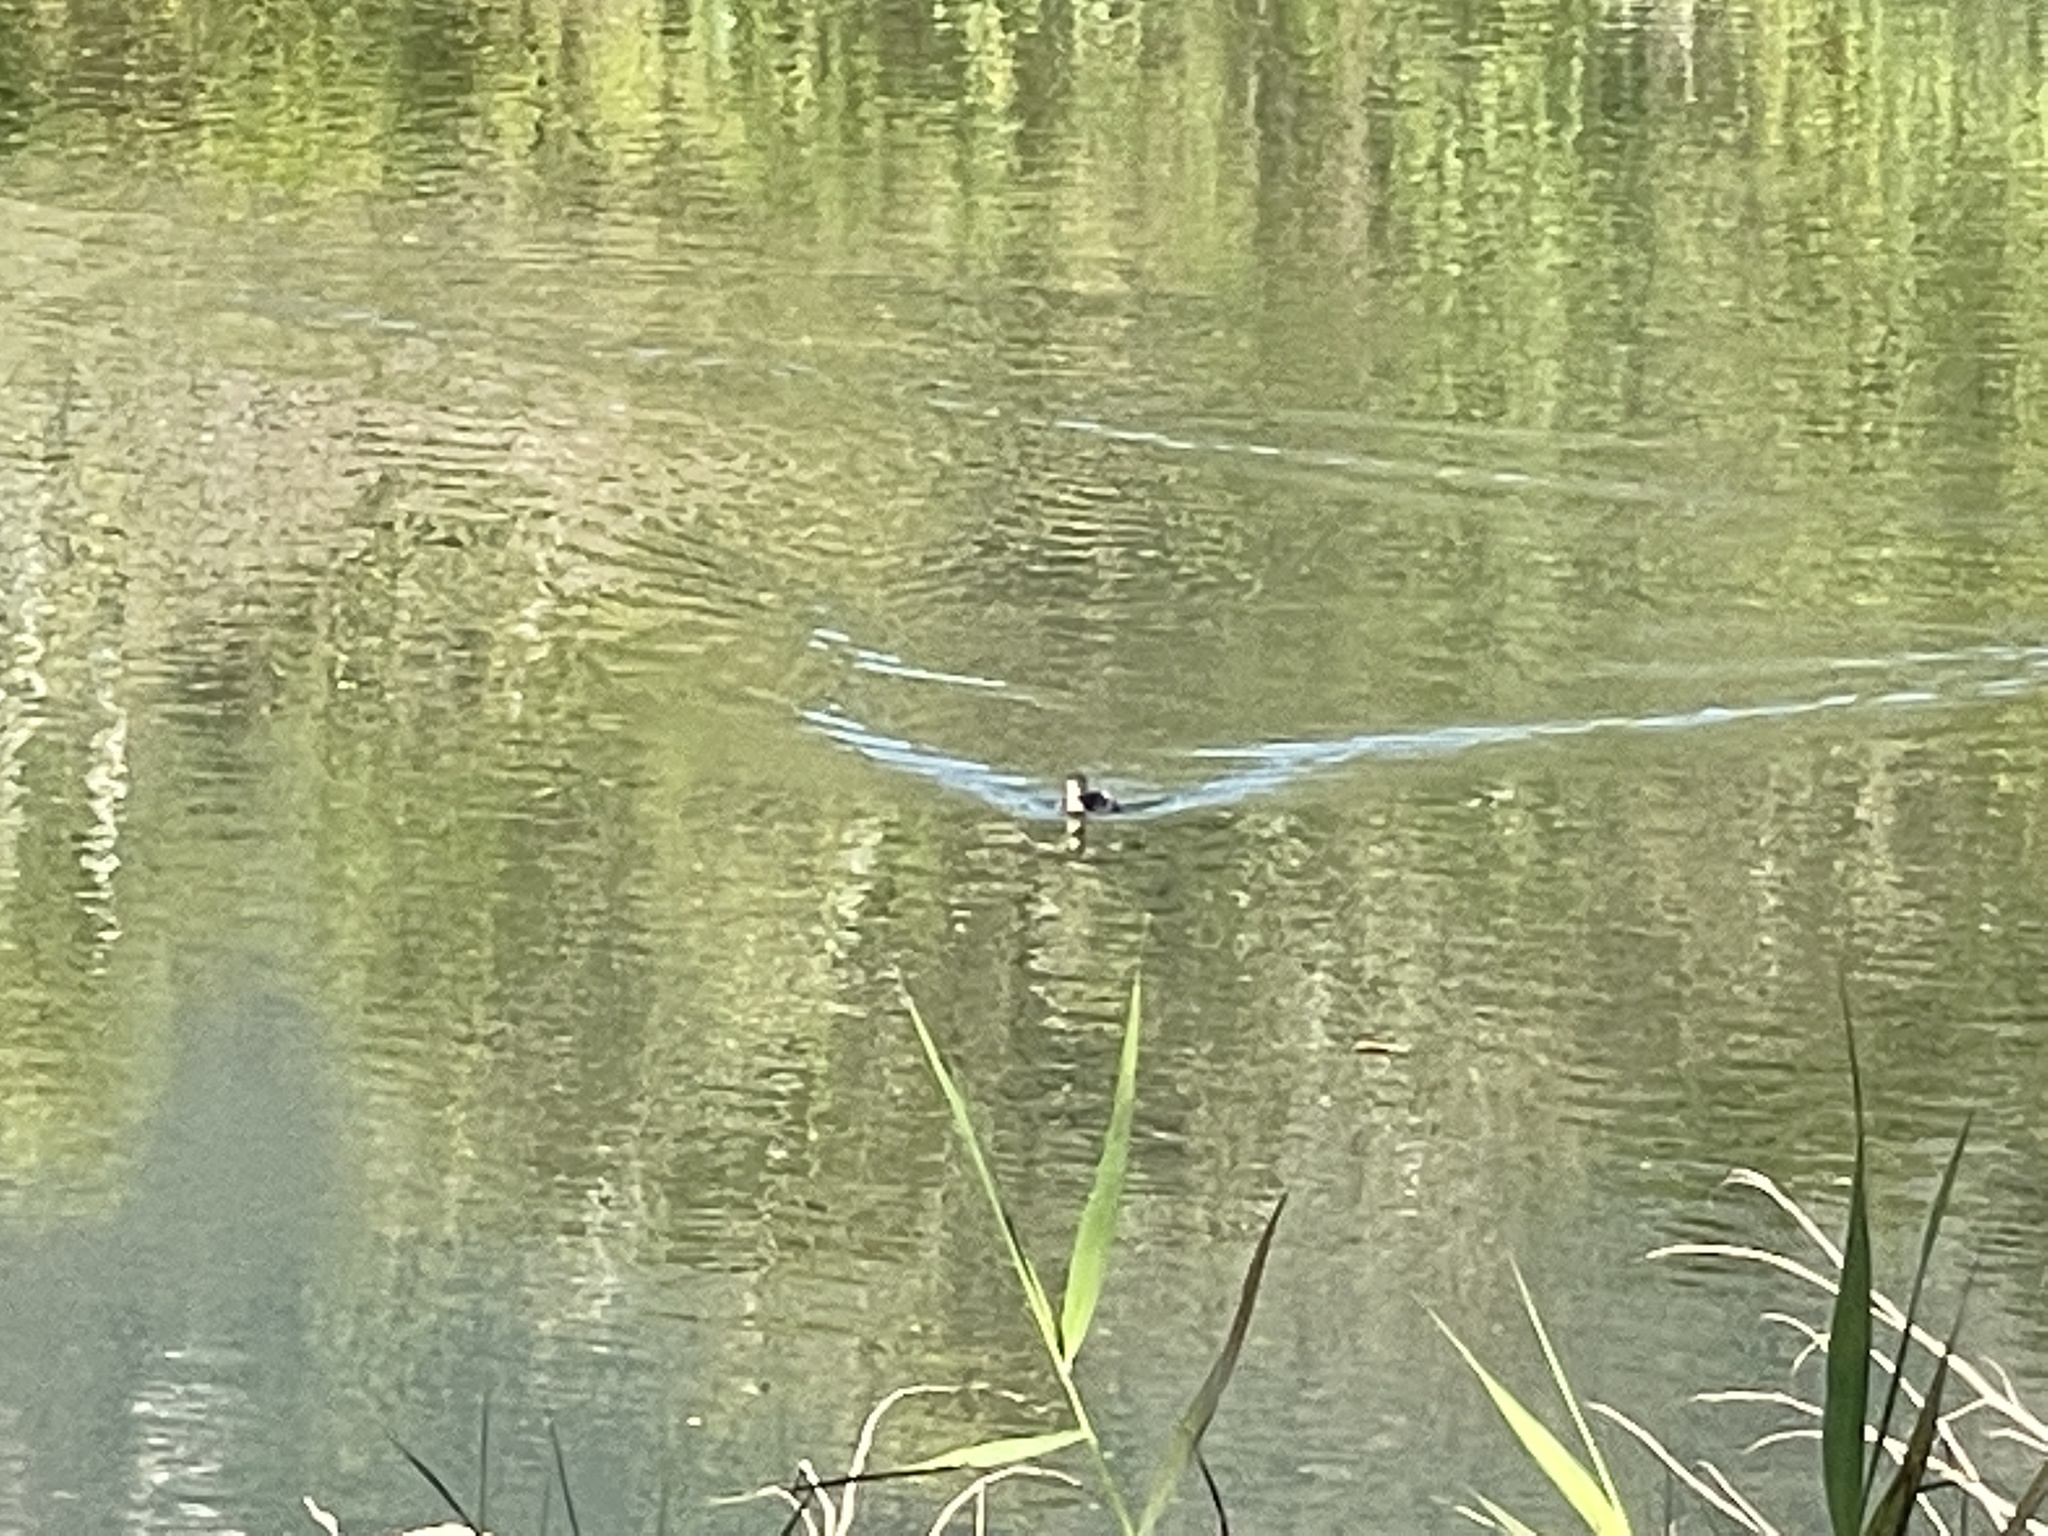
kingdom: Animalia
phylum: Chordata
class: Aves
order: Podicipediformes
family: Podicipedidae
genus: Tachybaptus
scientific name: Tachybaptus ruficollis
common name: Little grebe
